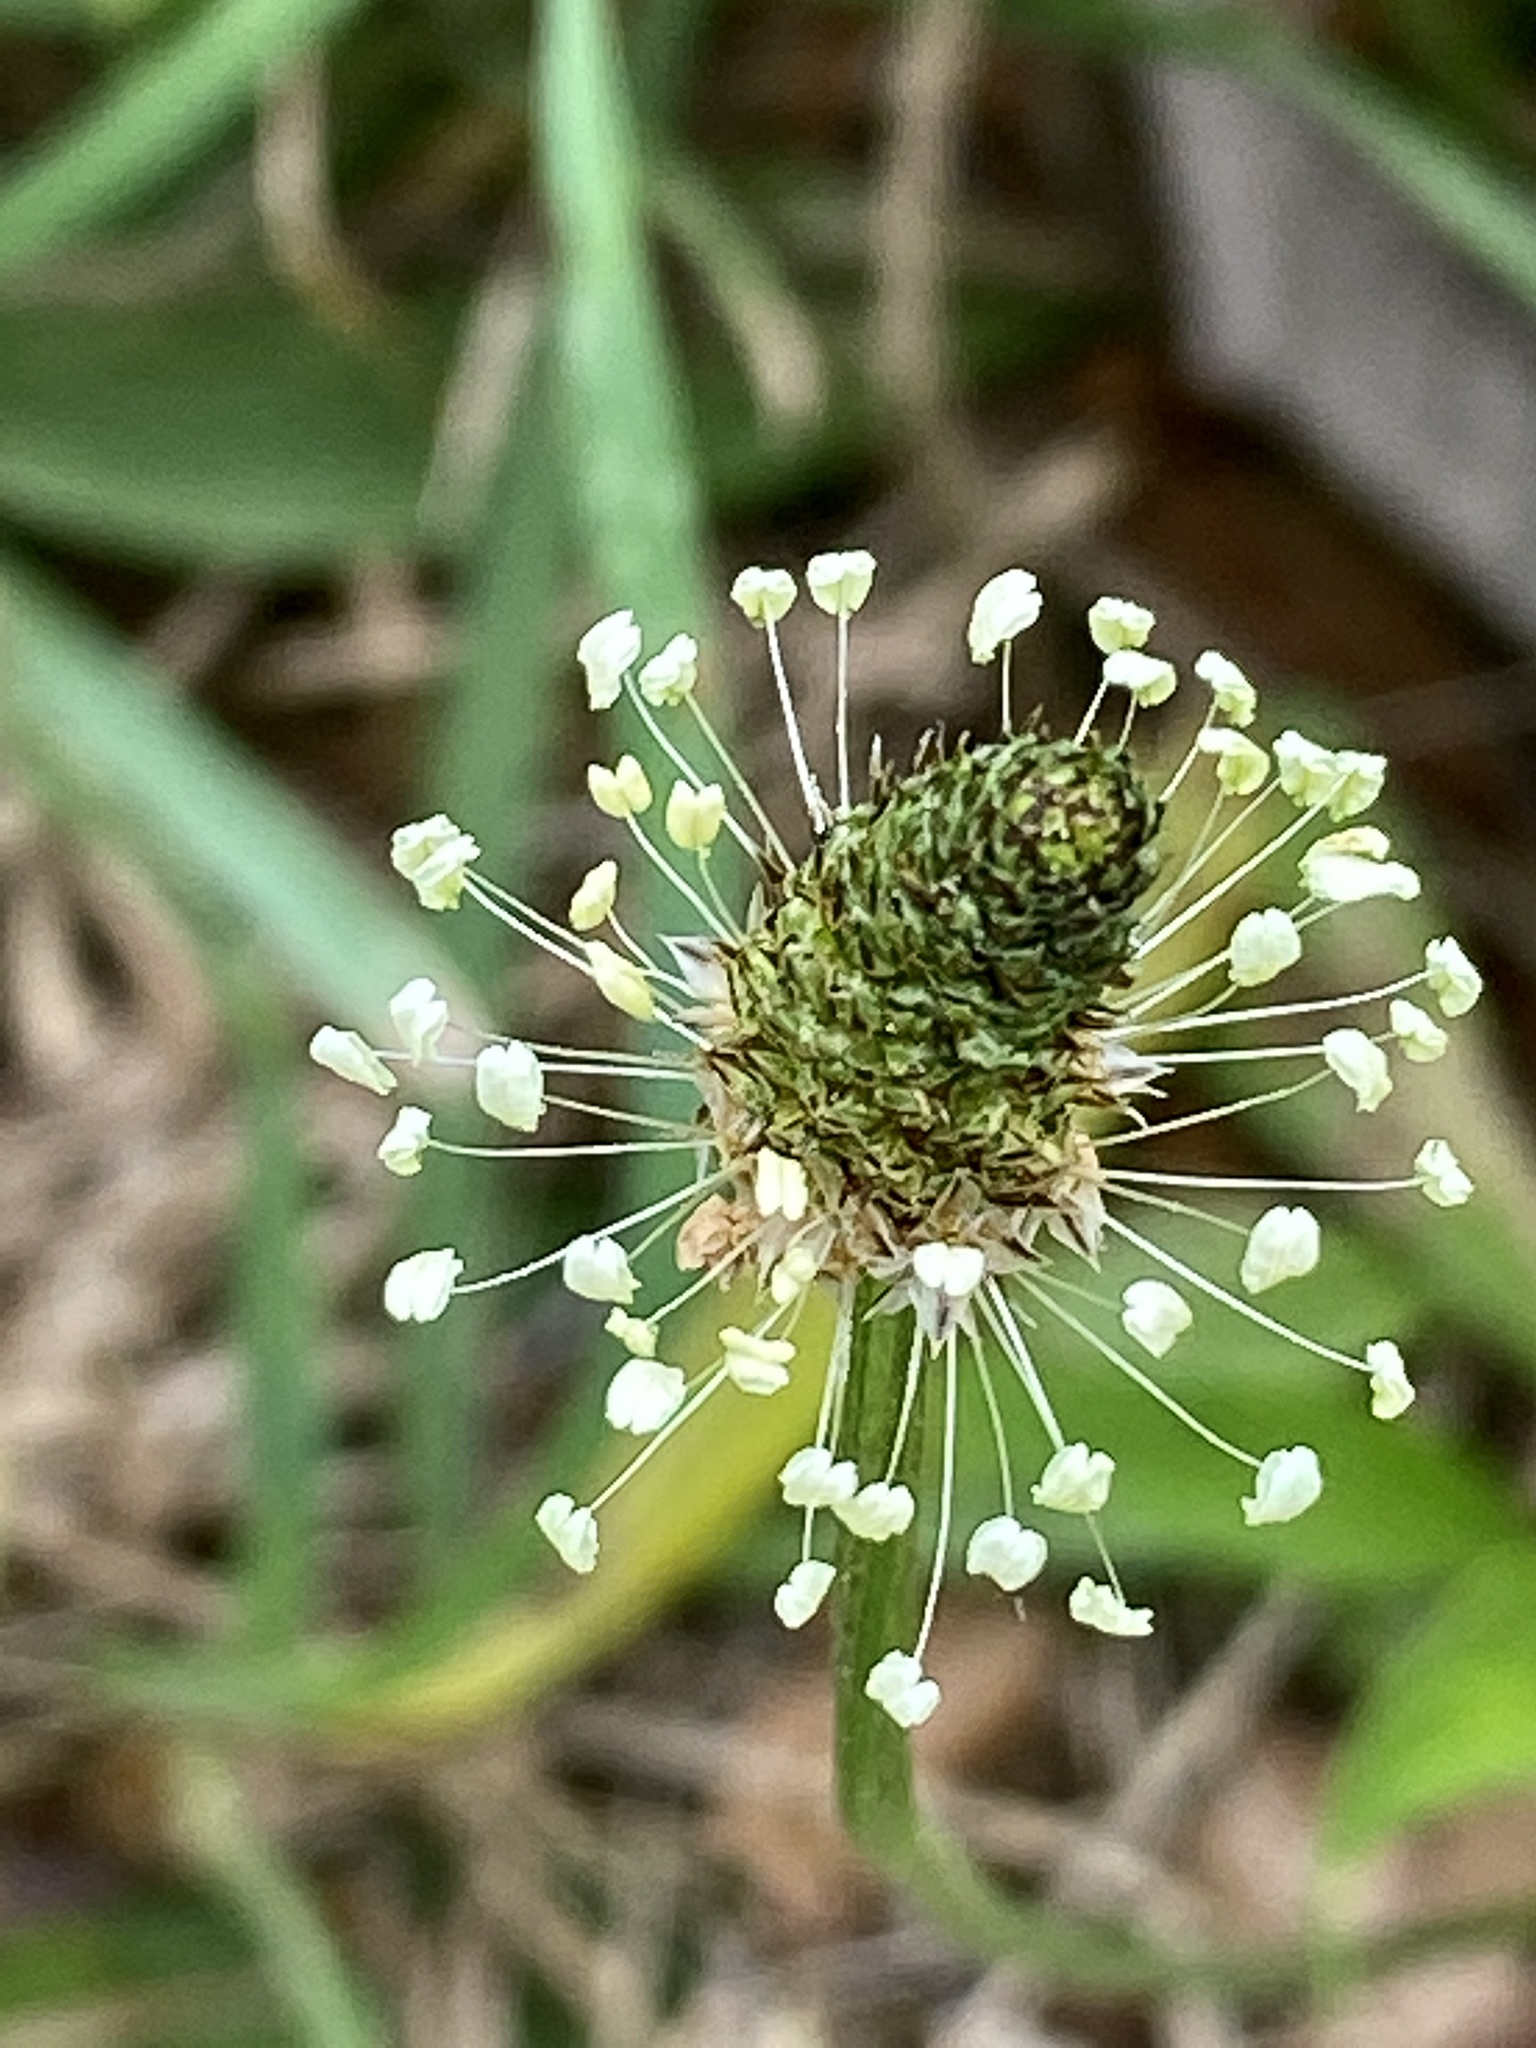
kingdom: Plantae
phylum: Tracheophyta
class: Magnoliopsida
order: Lamiales
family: Plantaginaceae
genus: Plantago
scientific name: Plantago lanceolata
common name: Ribwort plantain
